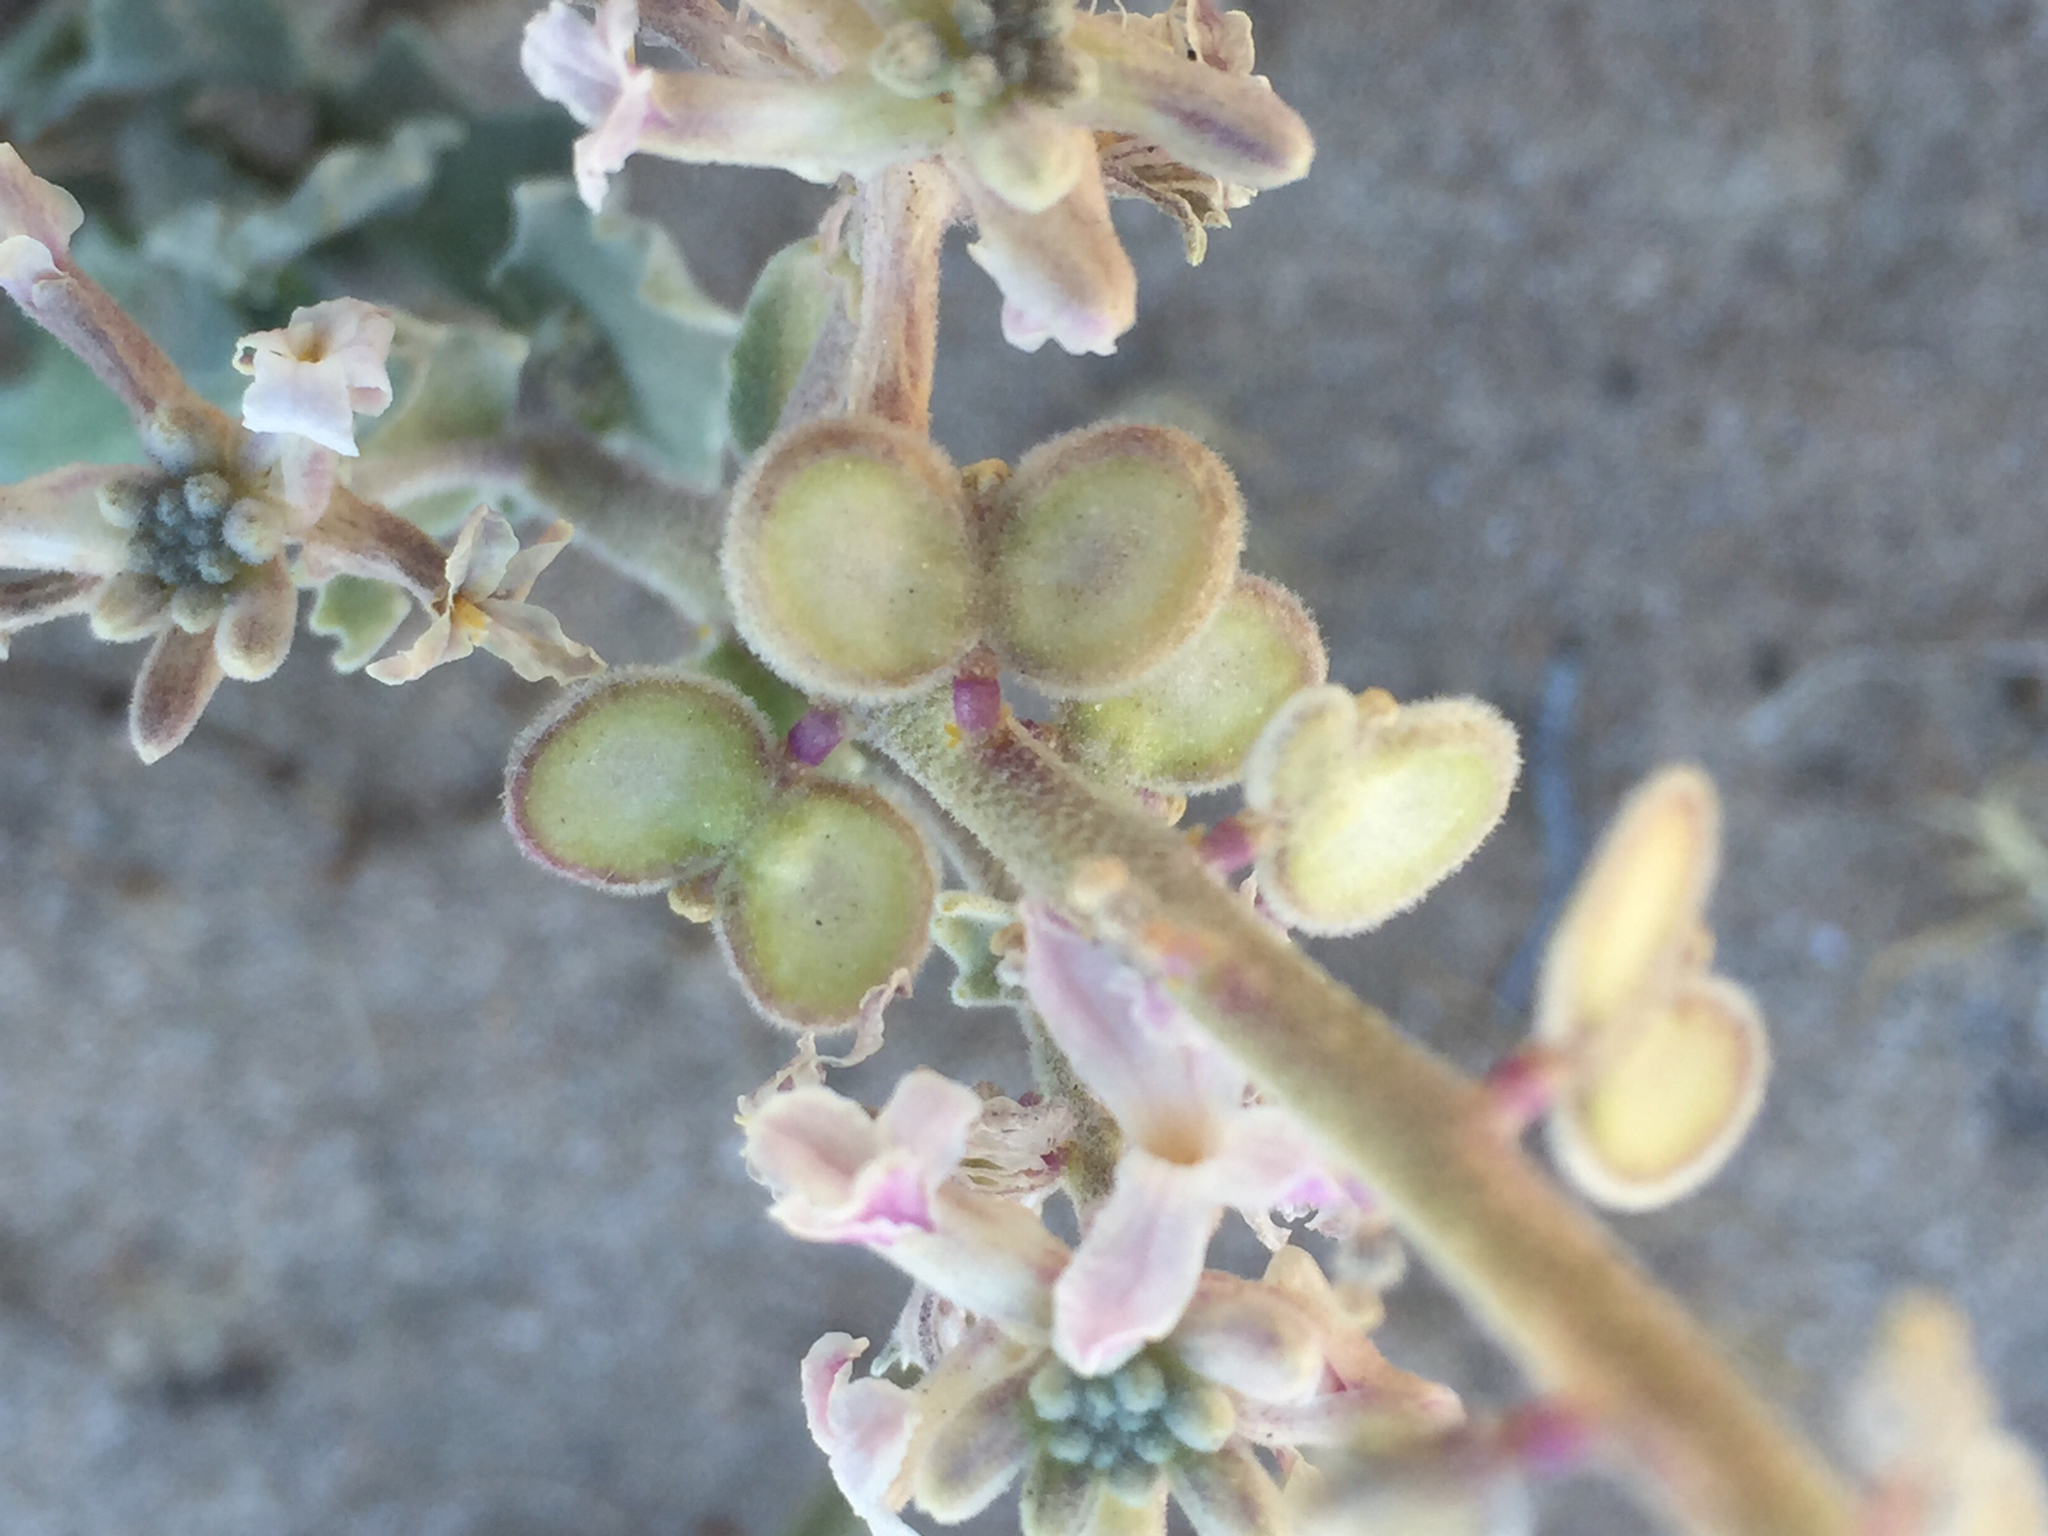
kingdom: Plantae
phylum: Tracheophyta
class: Magnoliopsida
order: Brassicales
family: Brassicaceae
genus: Dithyrea
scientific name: Dithyrea californica
